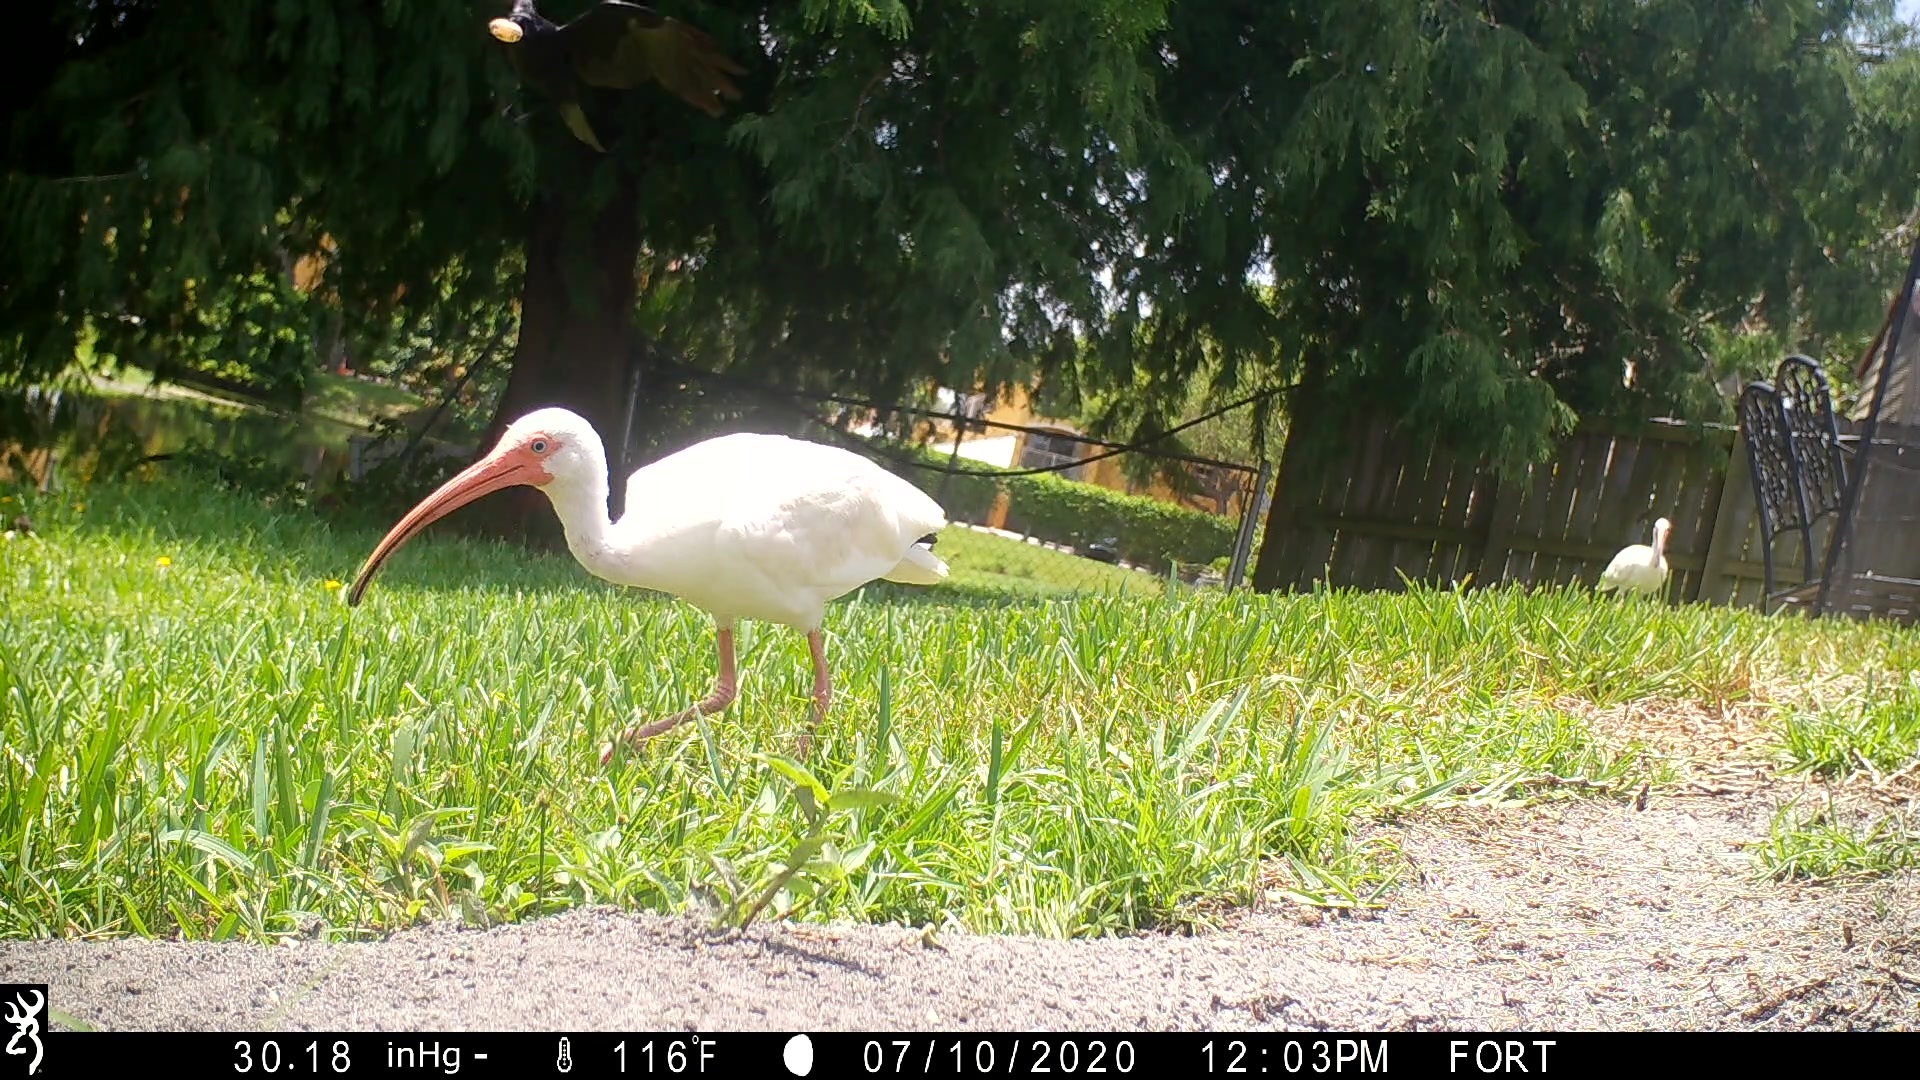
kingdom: Animalia
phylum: Chordata
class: Aves
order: Passeriformes
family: Corvidae
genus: Corvus
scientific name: Corvus
